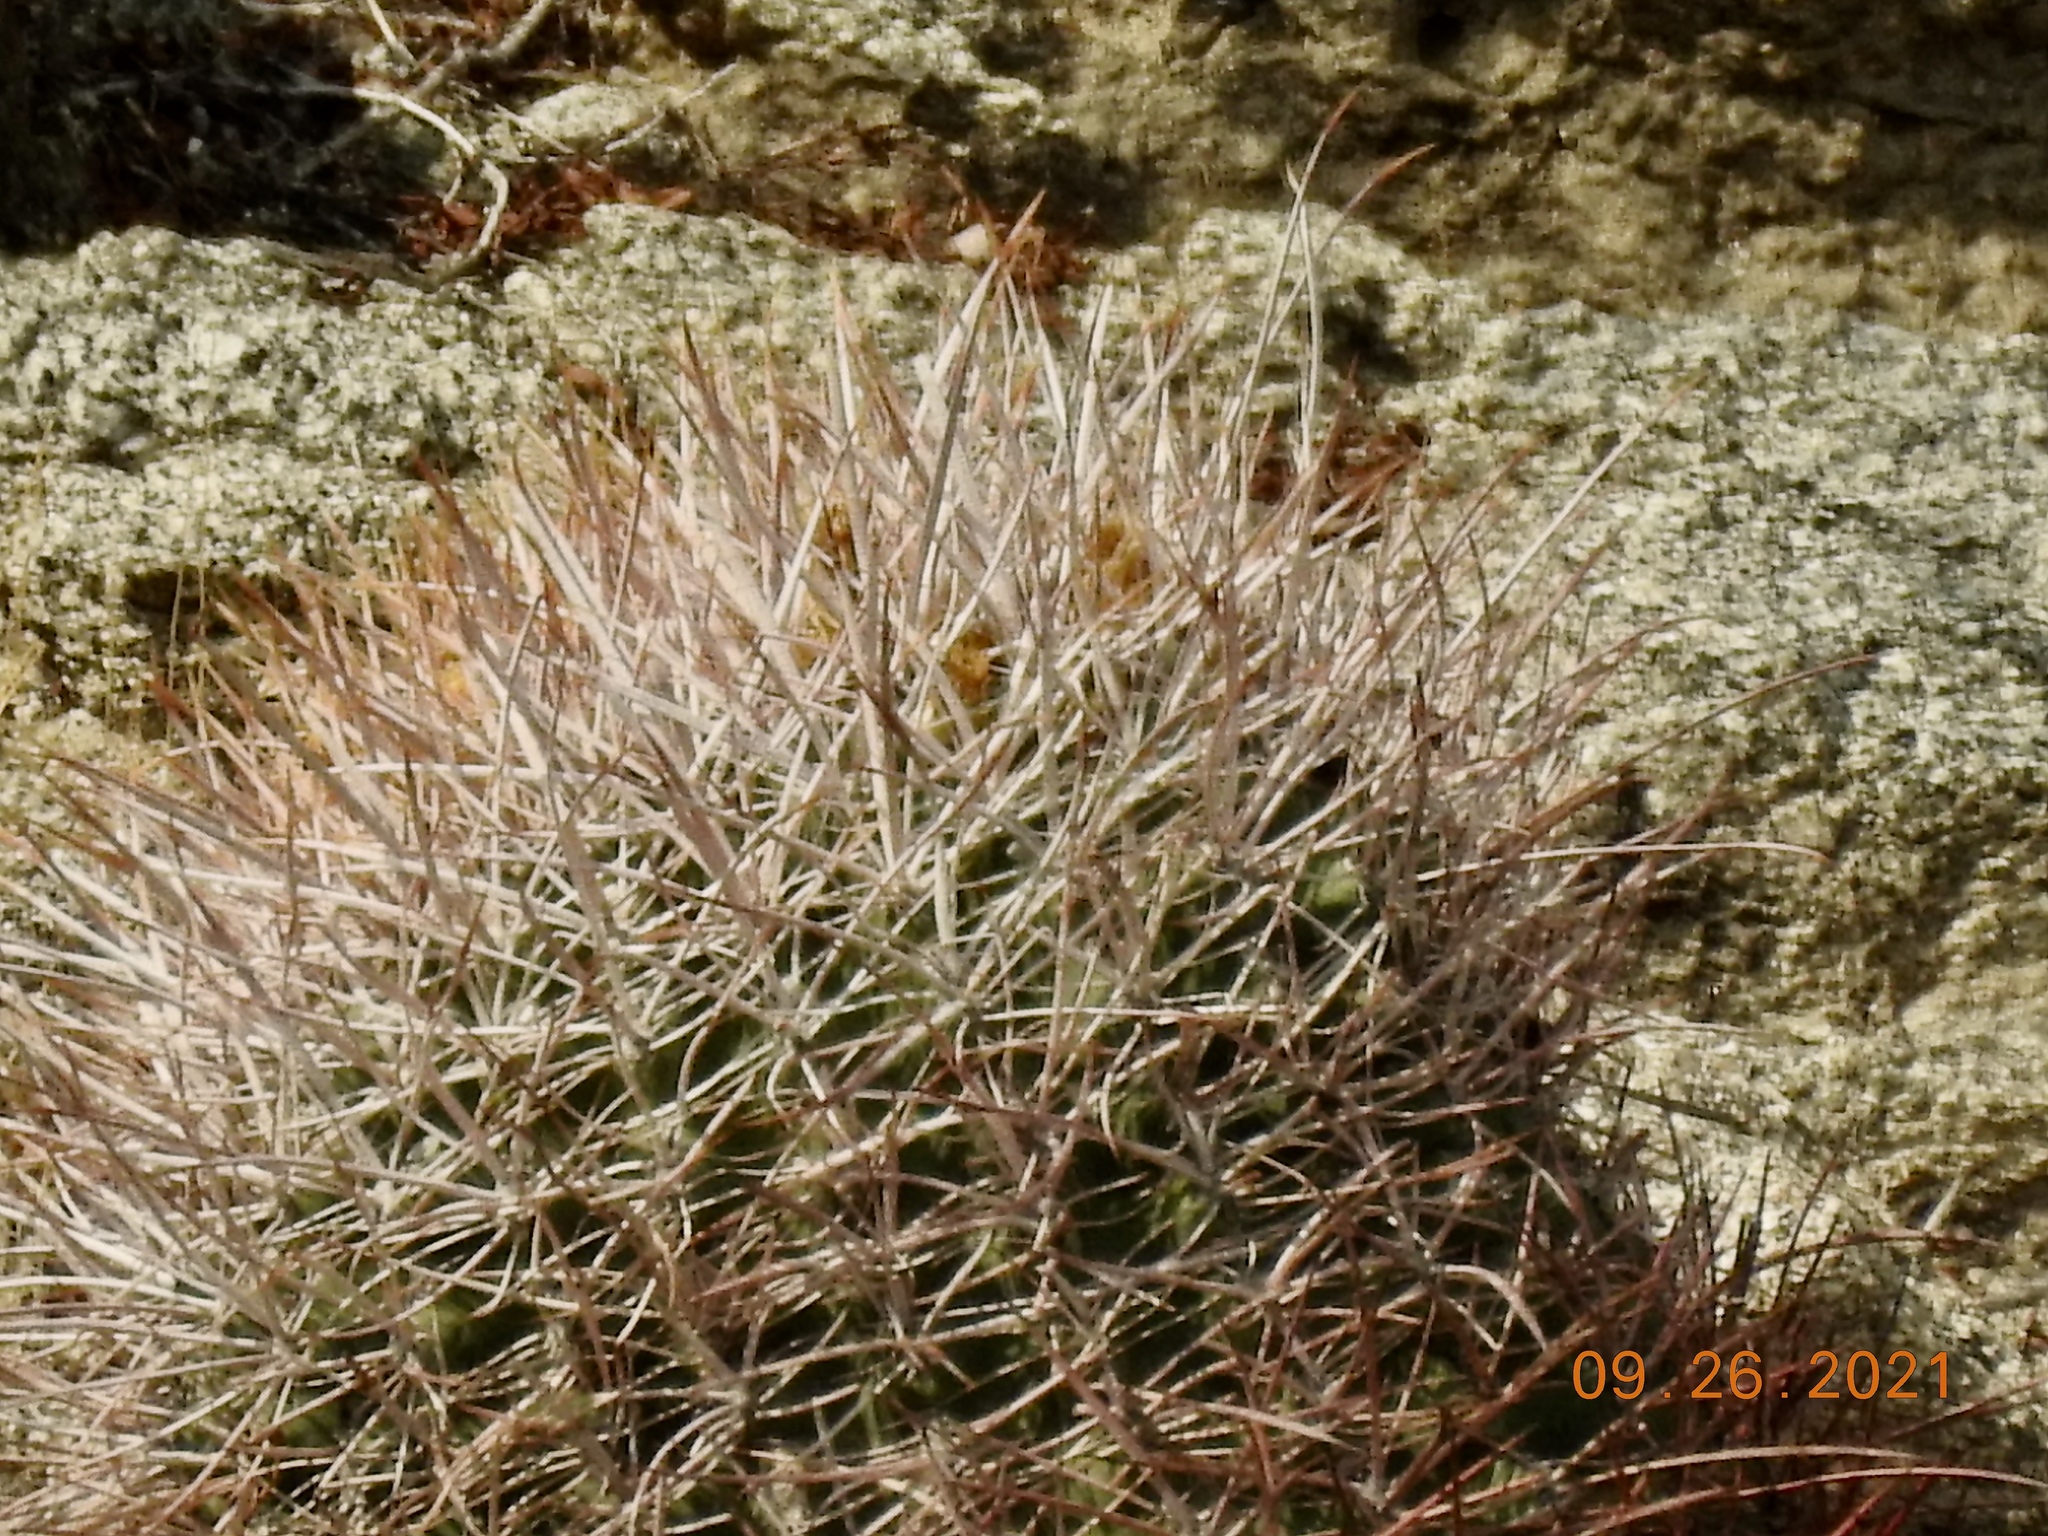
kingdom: Plantae
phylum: Tracheophyta
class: Magnoliopsida
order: Caryophyllales
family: Cactaceae
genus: Ferocactus
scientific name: Ferocactus cylindraceus
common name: California barrel cactus
